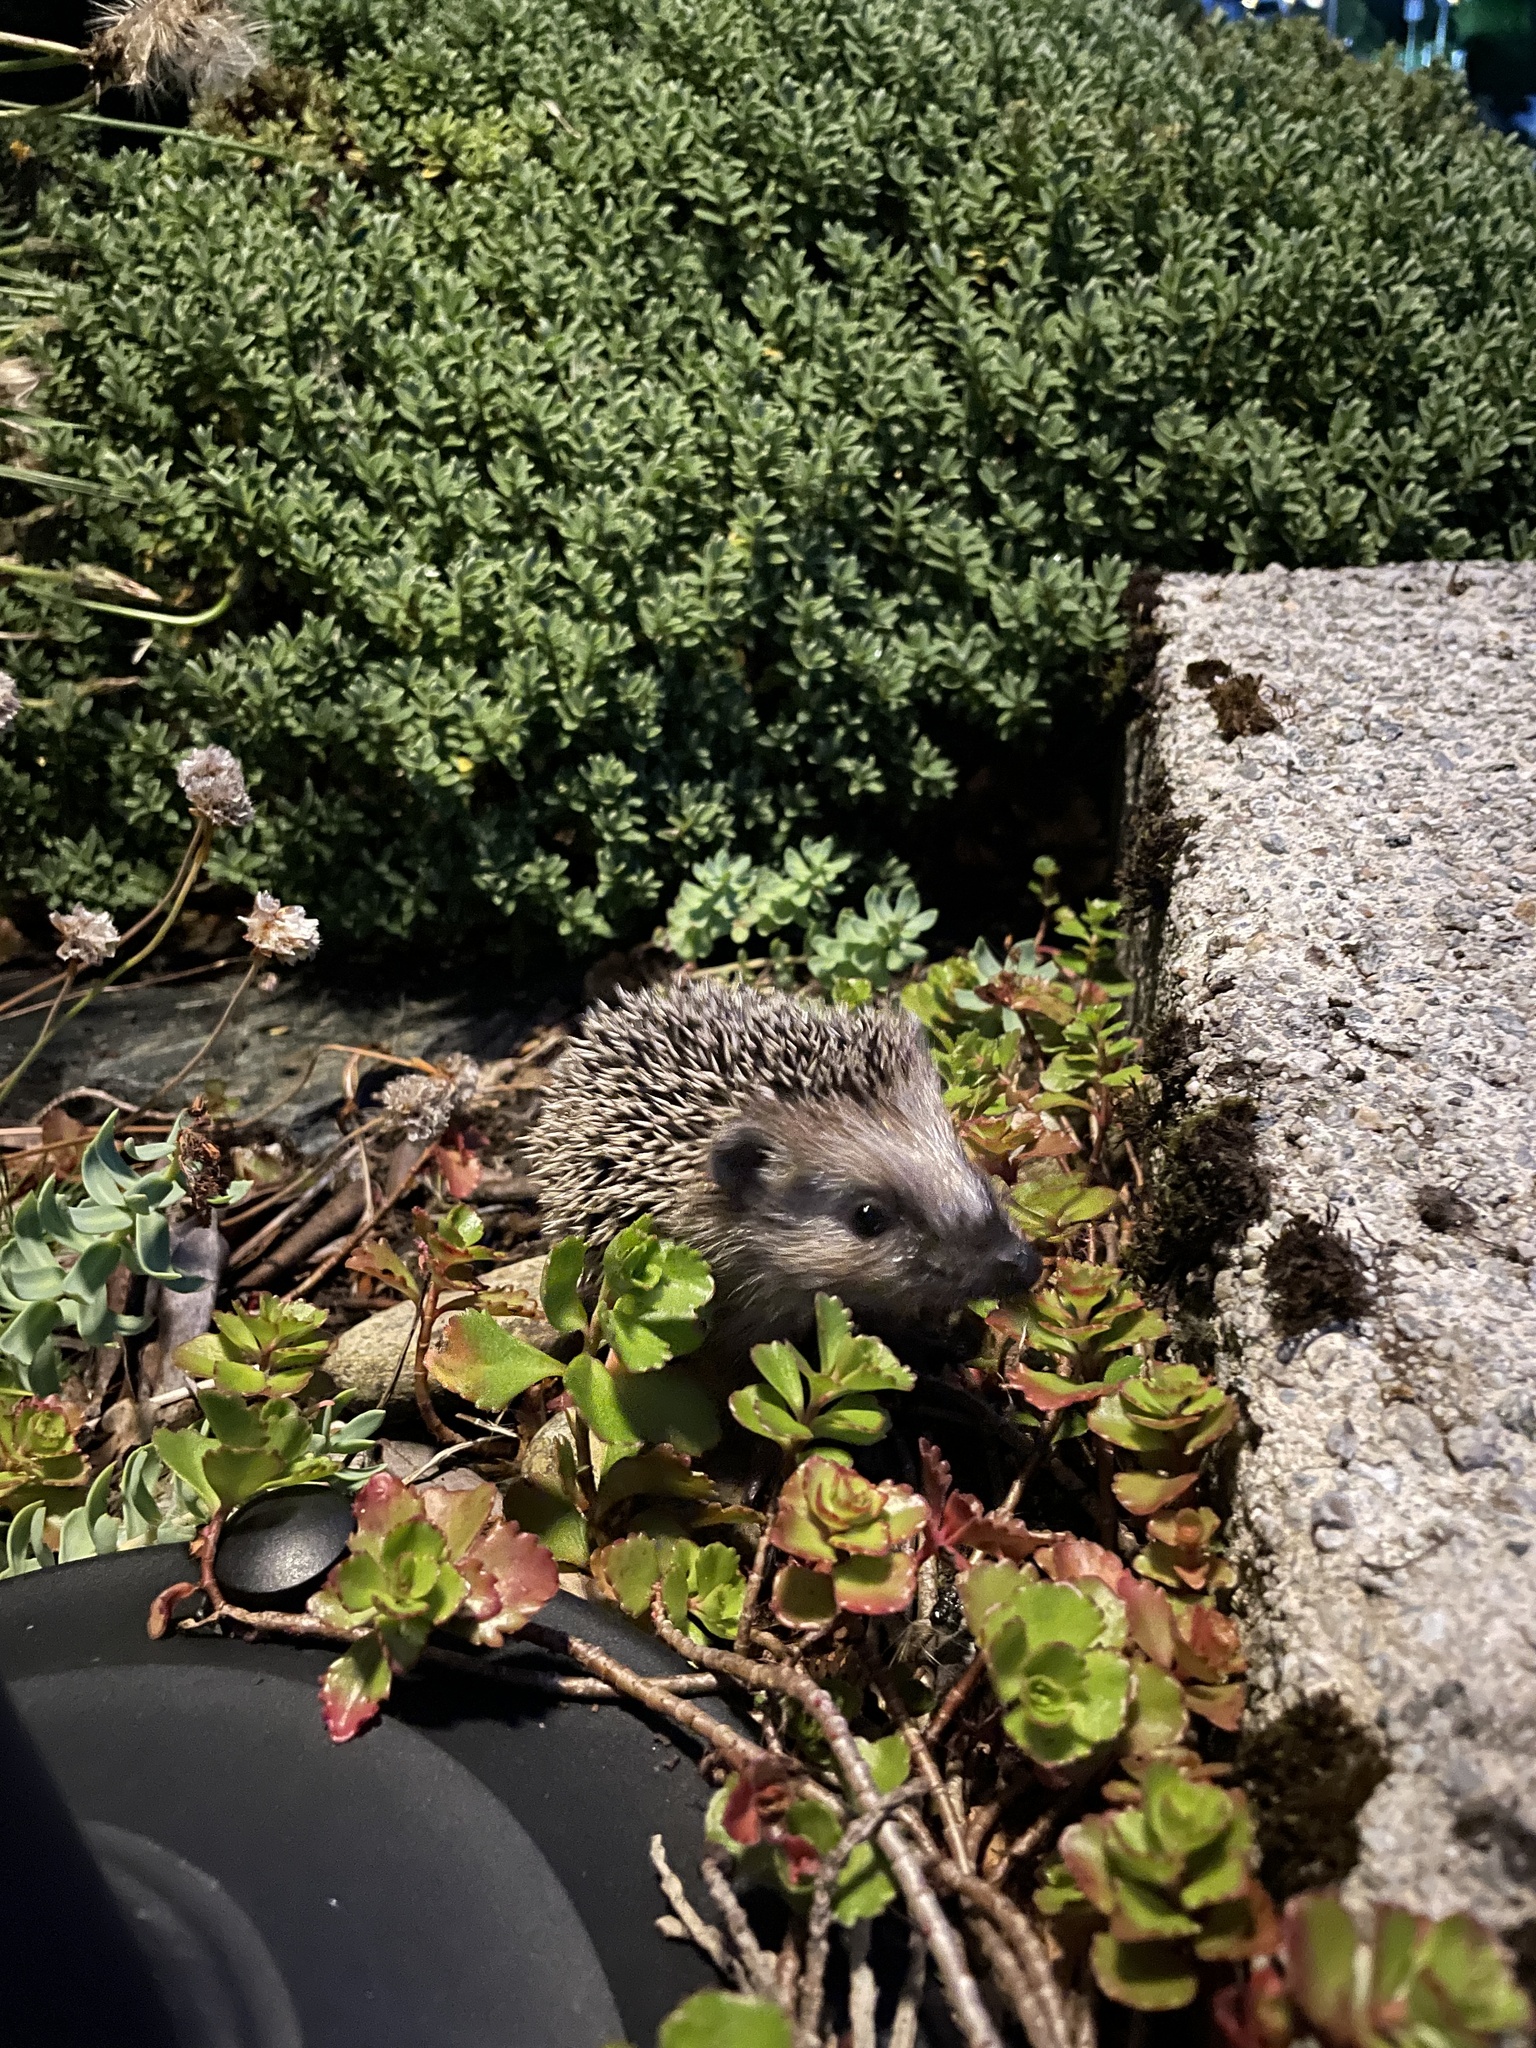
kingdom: Animalia
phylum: Chordata
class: Mammalia
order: Erinaceomorpha
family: Erinaceidae
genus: Erinaceus
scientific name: Erinaceus europaeus
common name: West european hedgehog
